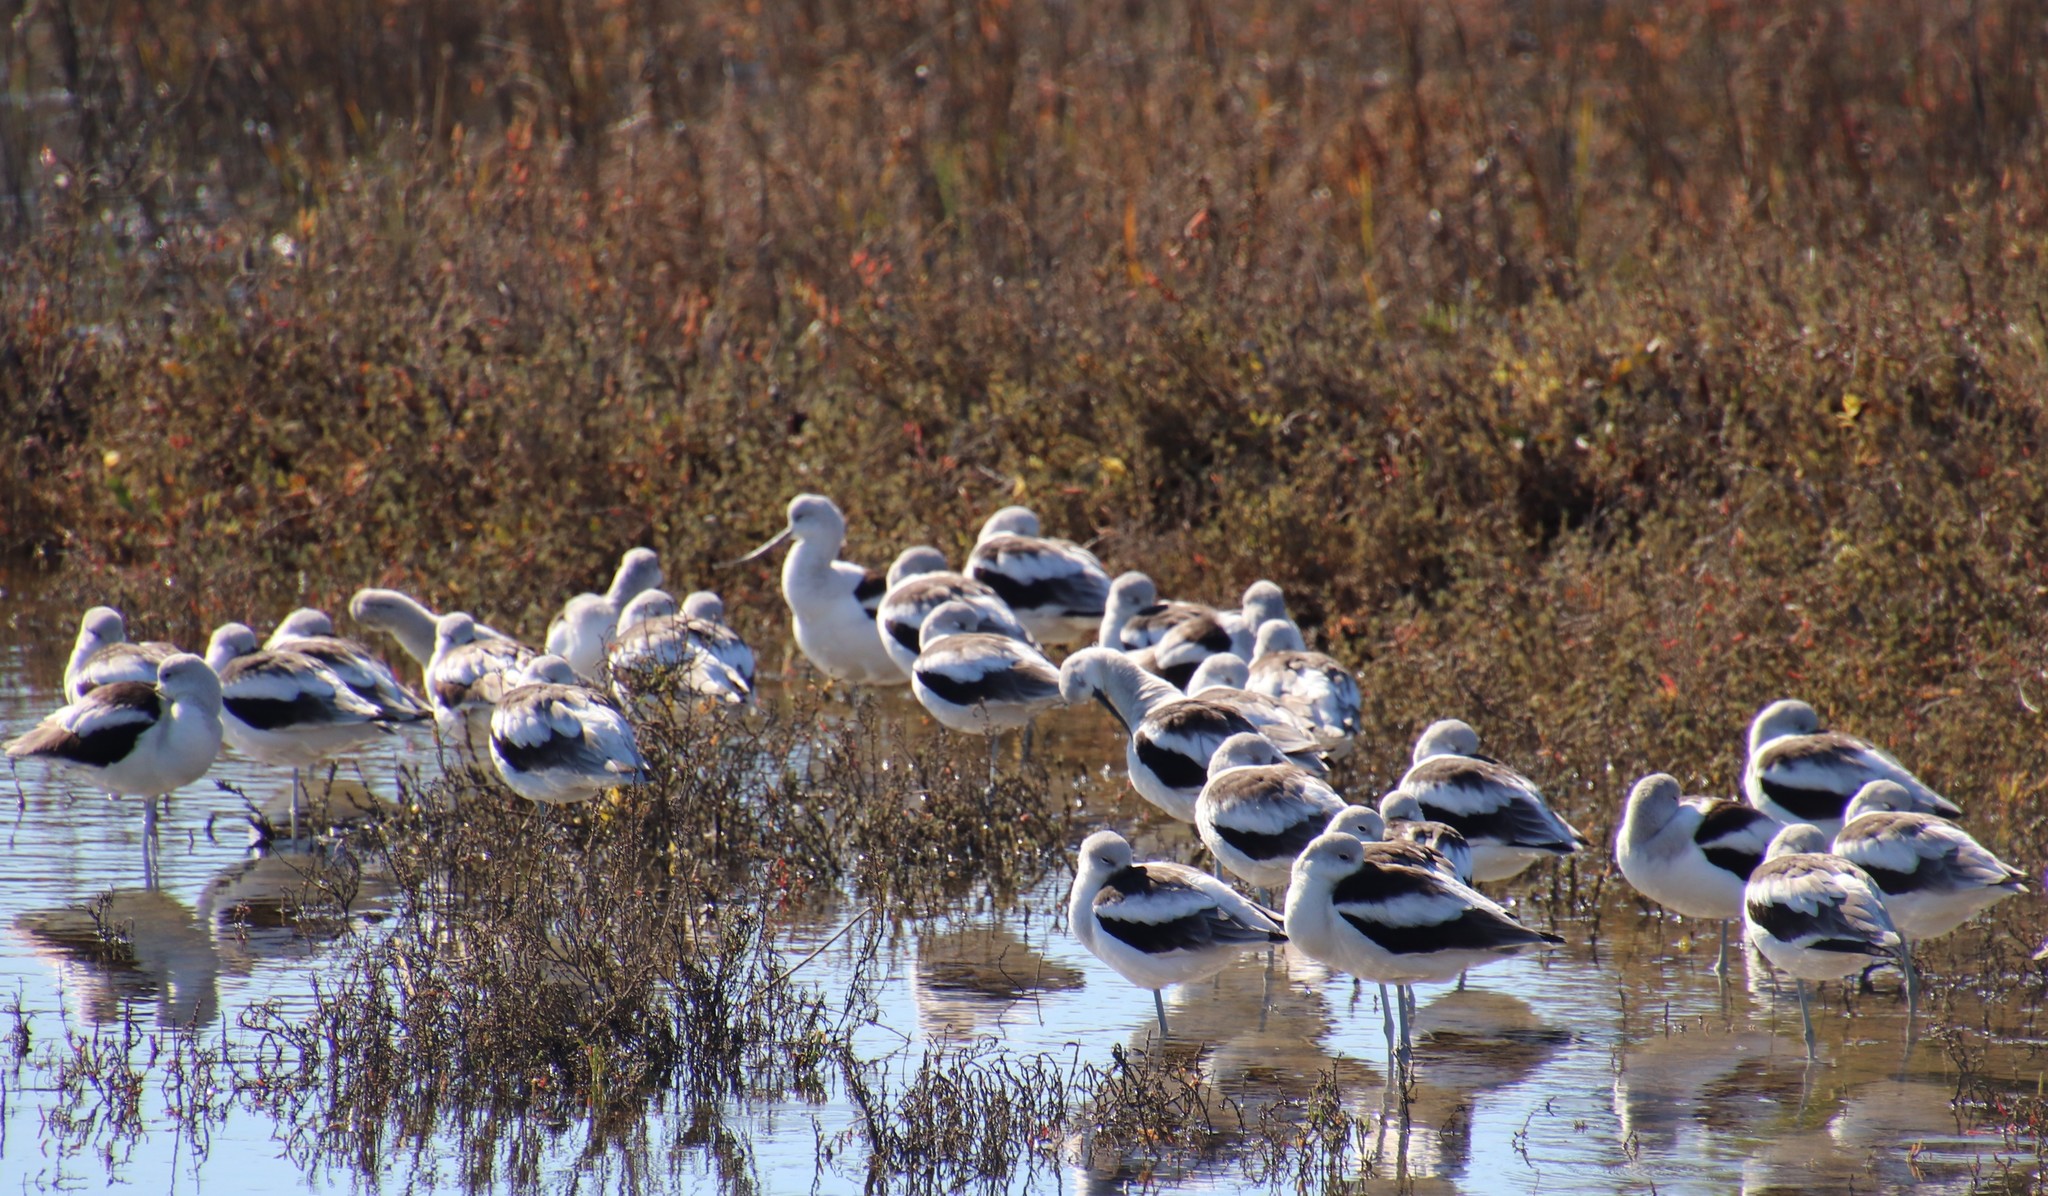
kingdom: Animalia
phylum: Chordata
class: Aves
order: Charadriiformes
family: Recurvirostridae
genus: Recurvirostra
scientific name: Recurvirostra americana
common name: American avocet
